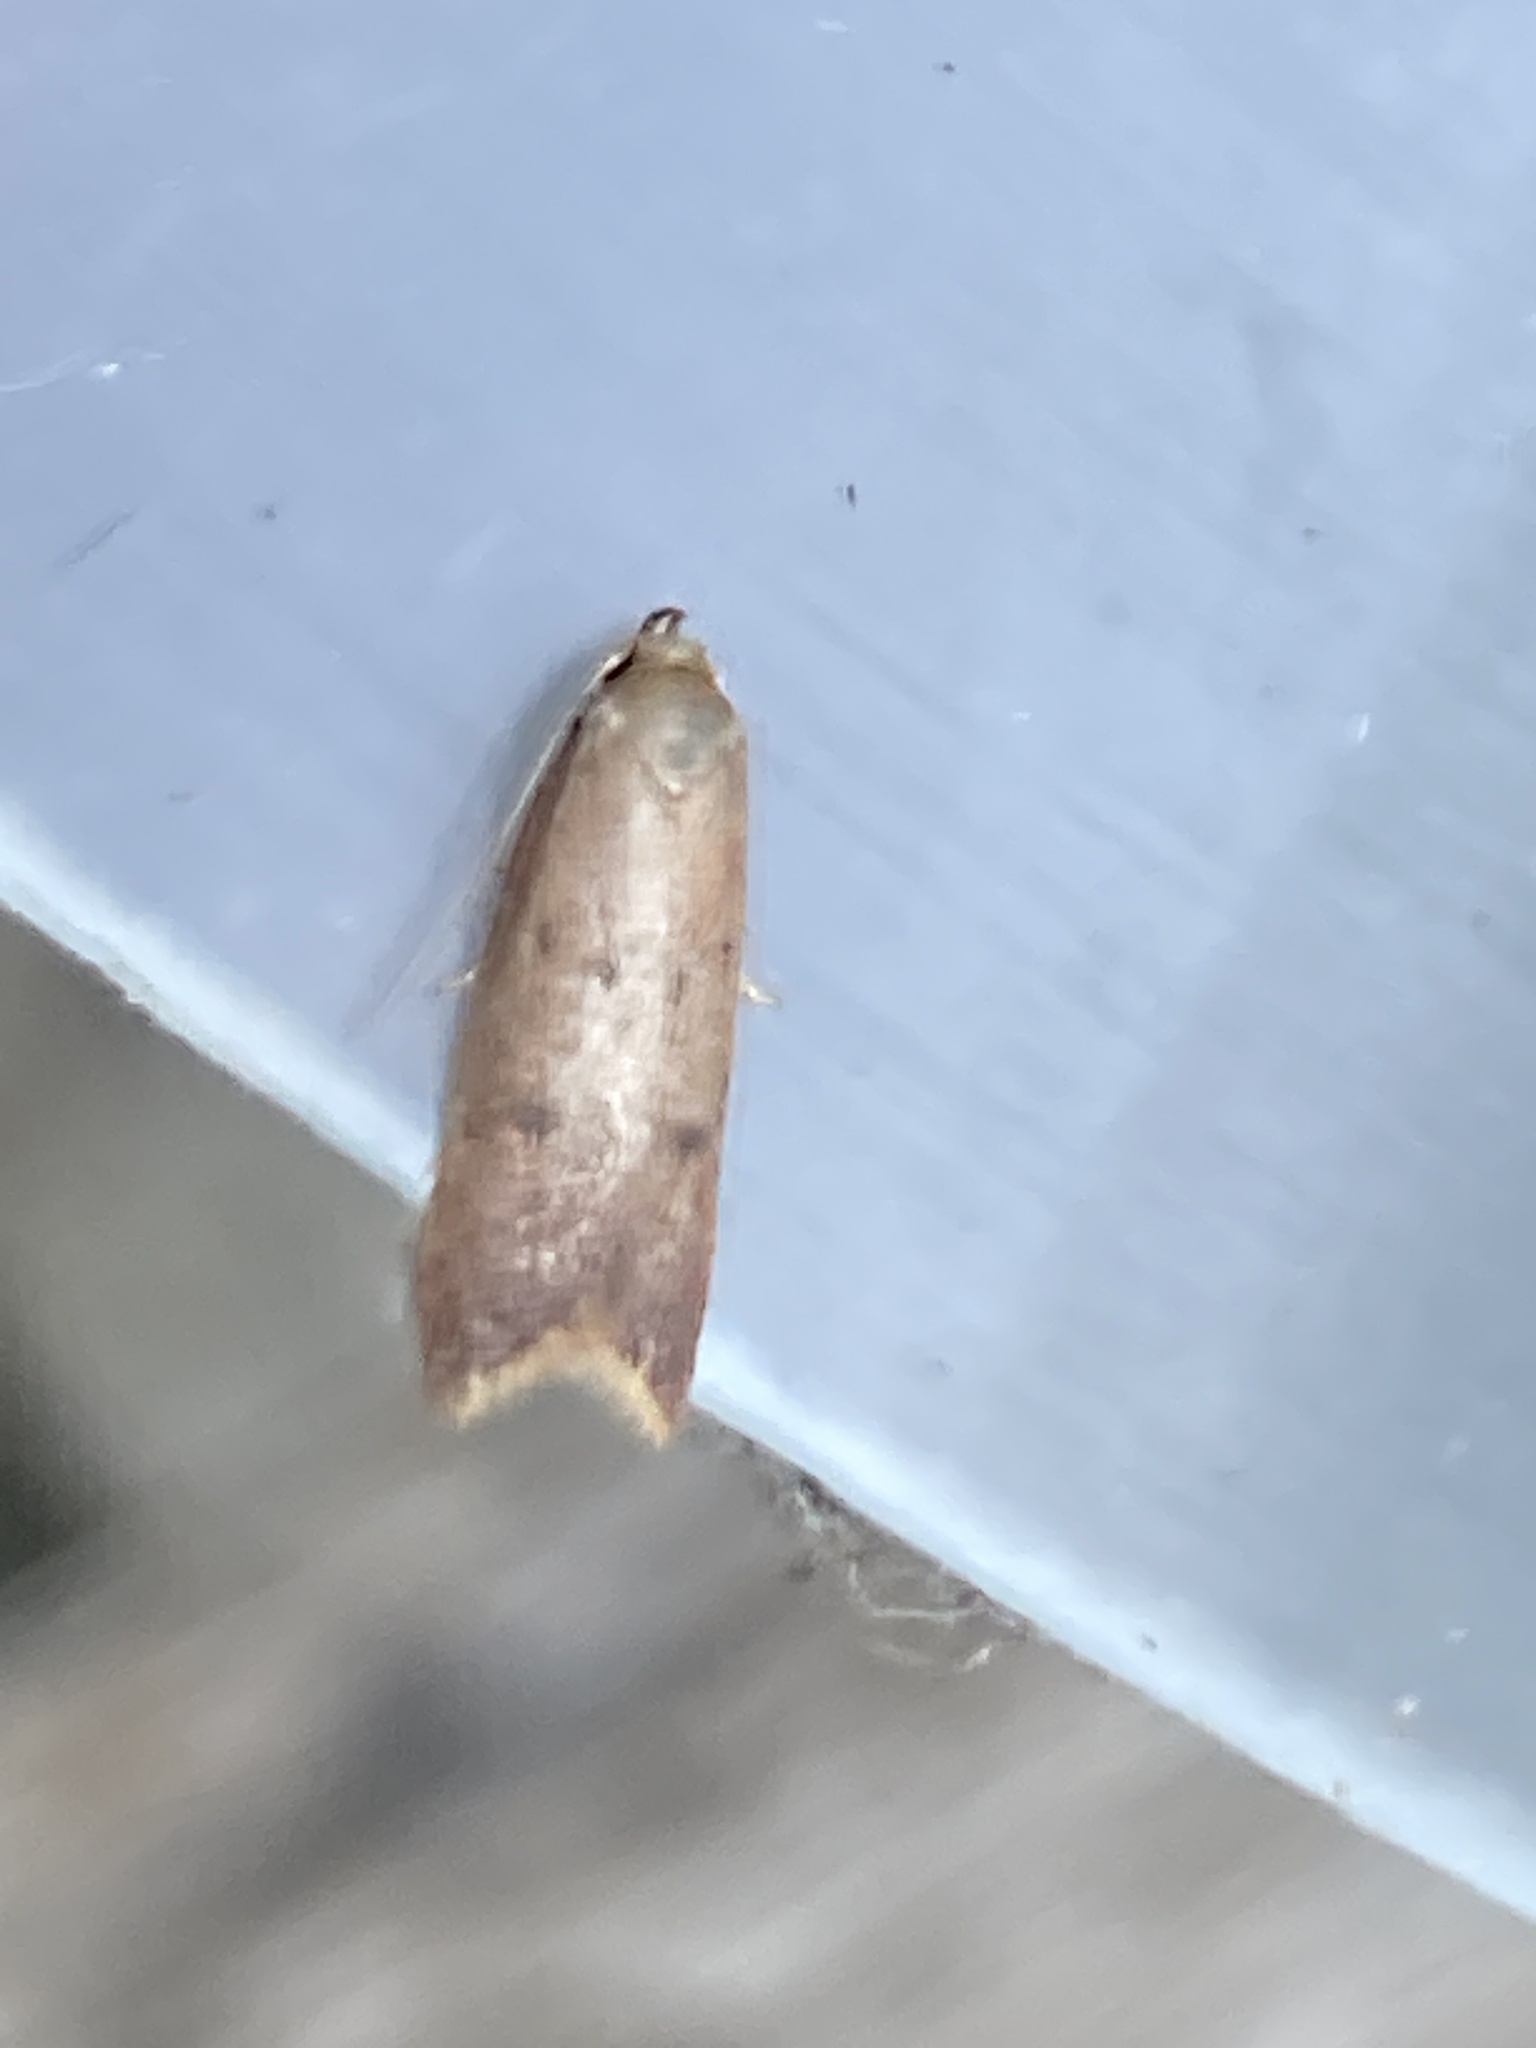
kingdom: Animalia
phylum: Arthropoda
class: Insecta
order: Lepidoptera
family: Oecophoridae
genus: Tachystola
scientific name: Tachystola acroxantha
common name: Ruddy streak
